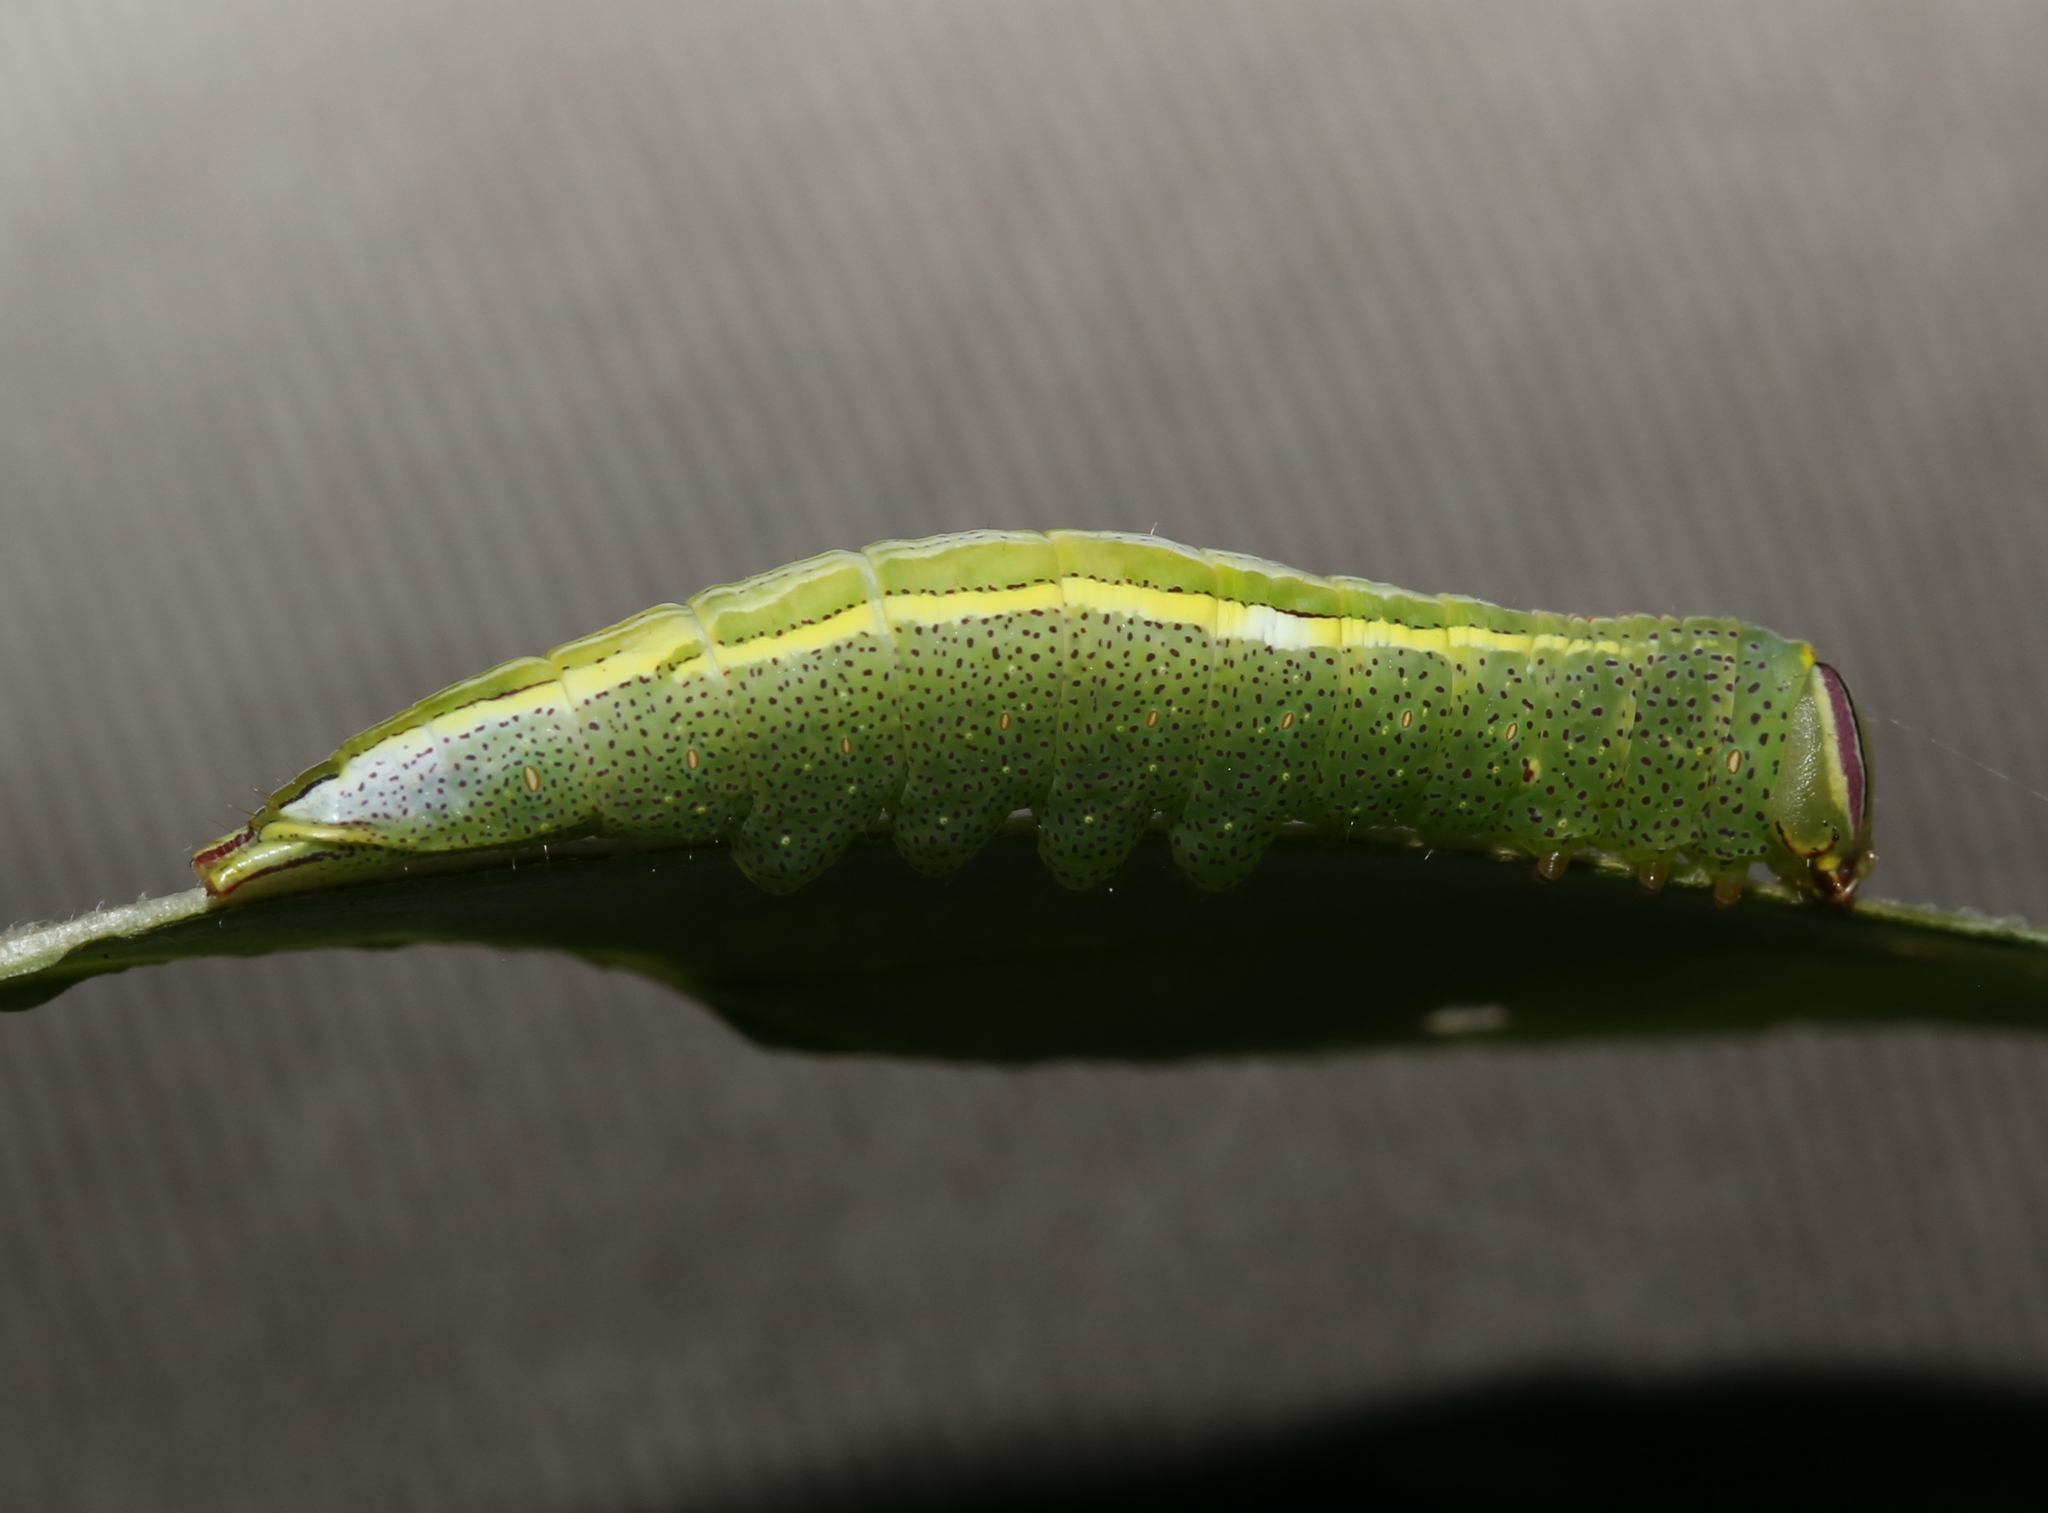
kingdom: Animalia
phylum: Arthropoda
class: Insecta
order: Lepidoptera
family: Notodontidae
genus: Disphragis
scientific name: Disphragis Cecrita guttivitta
